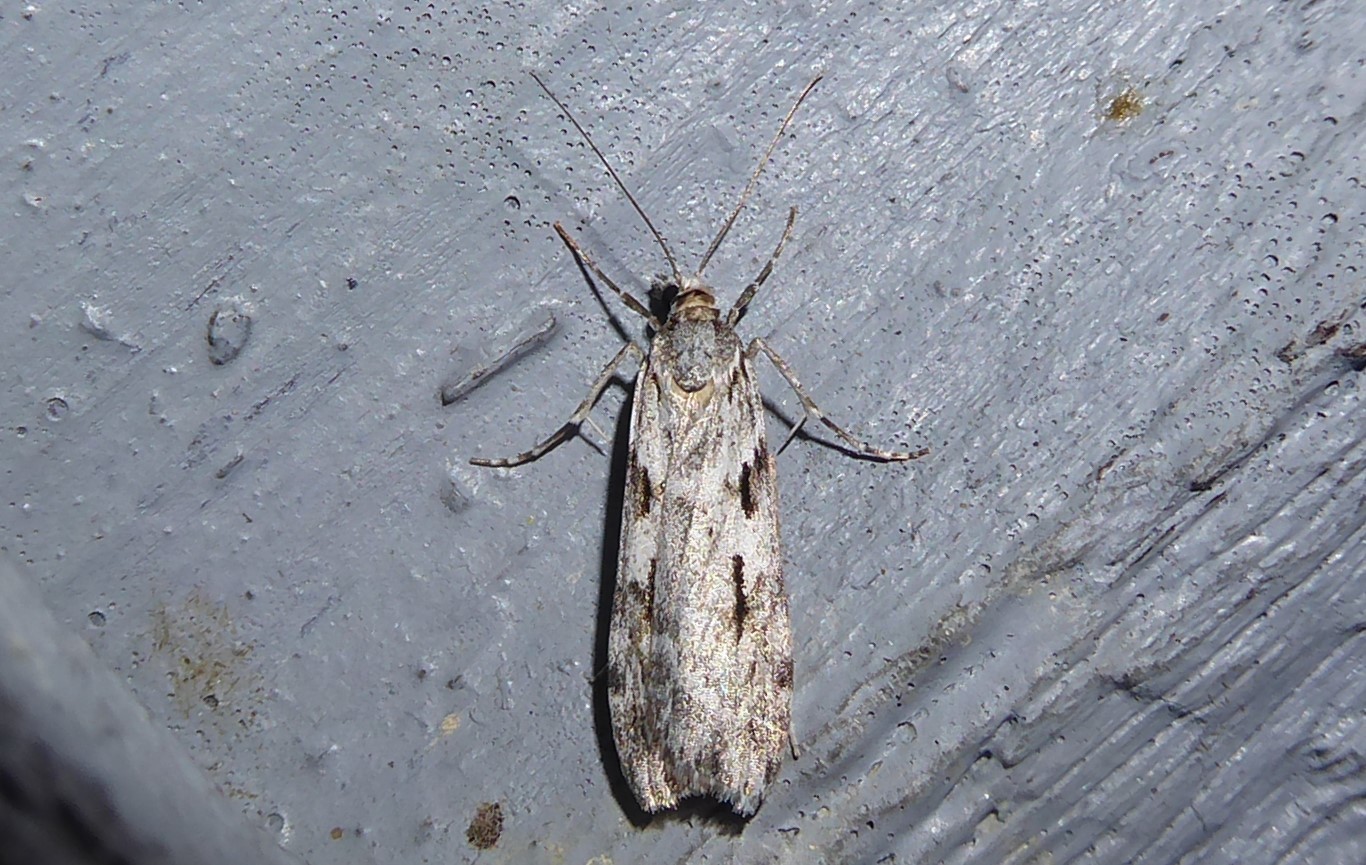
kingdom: Animalia
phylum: Arthropoda
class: Insecta
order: Lepidoptera
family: Crambidae
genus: Scoparia
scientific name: Scoparia halopis
